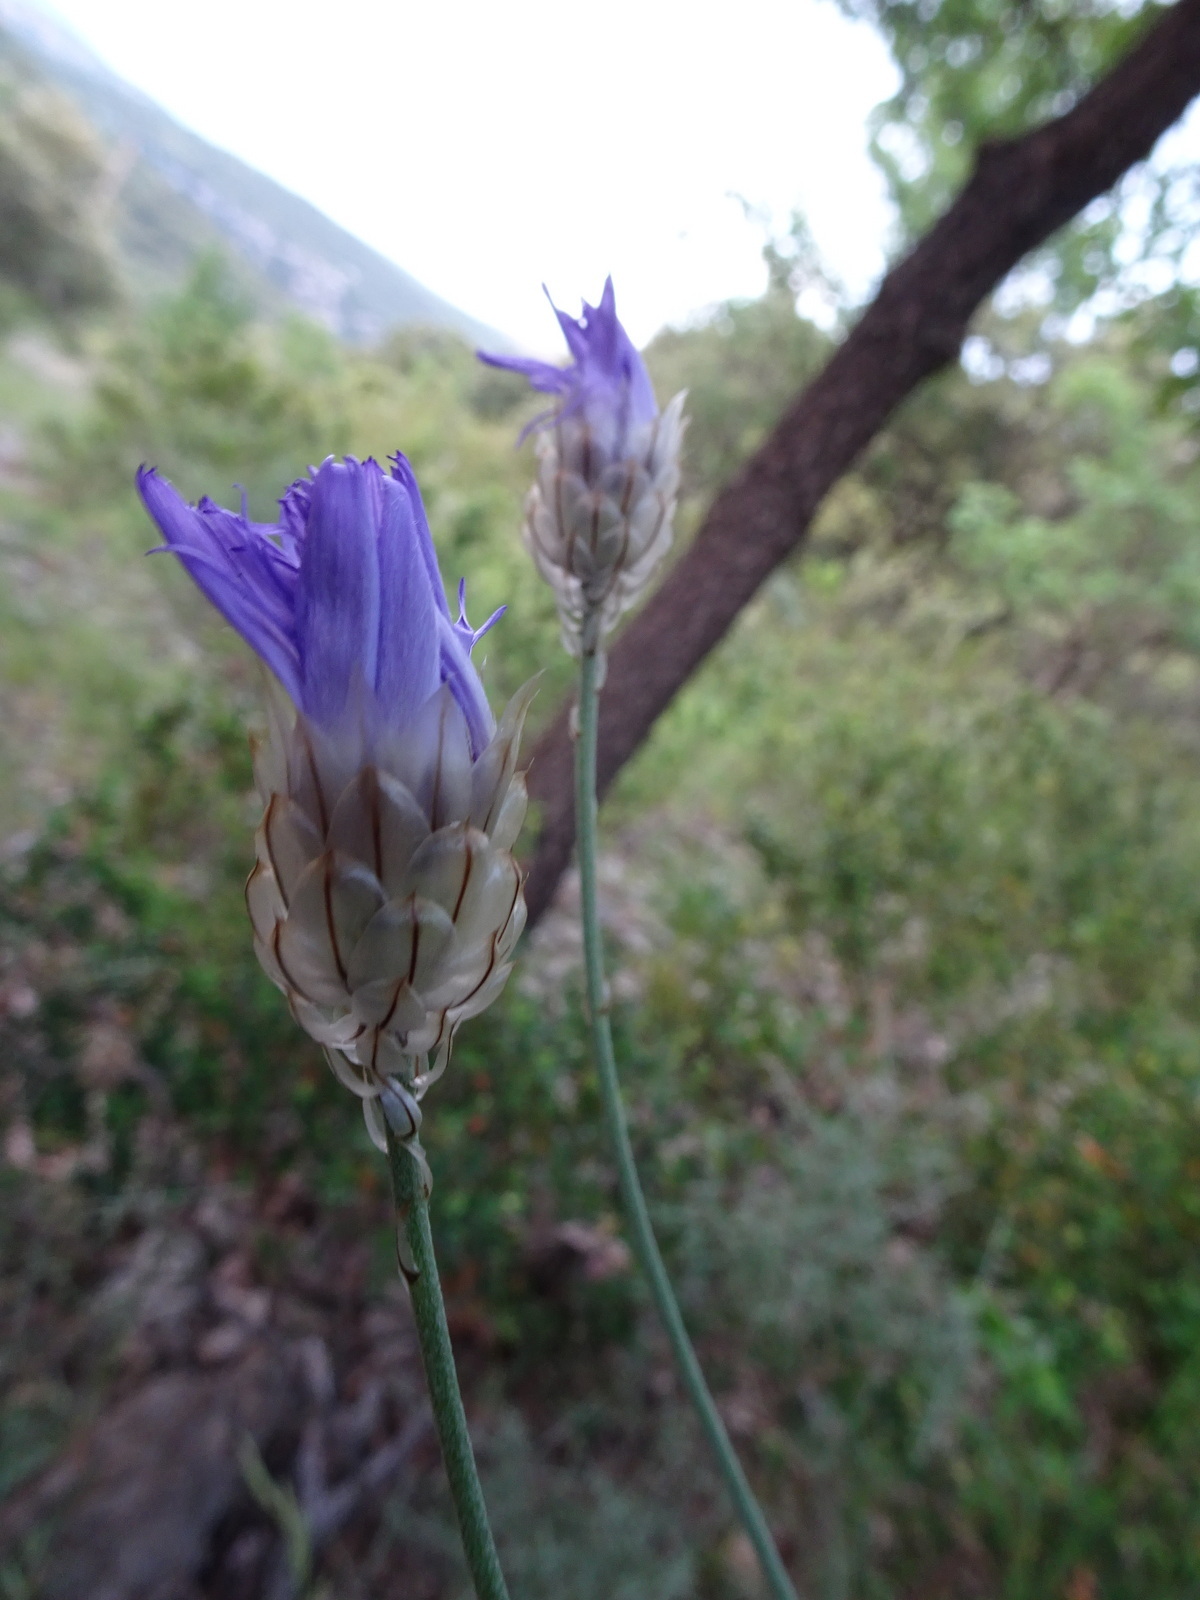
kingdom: Plantae
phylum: Tracheophyta
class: Magnoliopsida
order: Asterales
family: Asteraceae
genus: Catananche
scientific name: Catananche caerulea
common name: Blue cupidone
